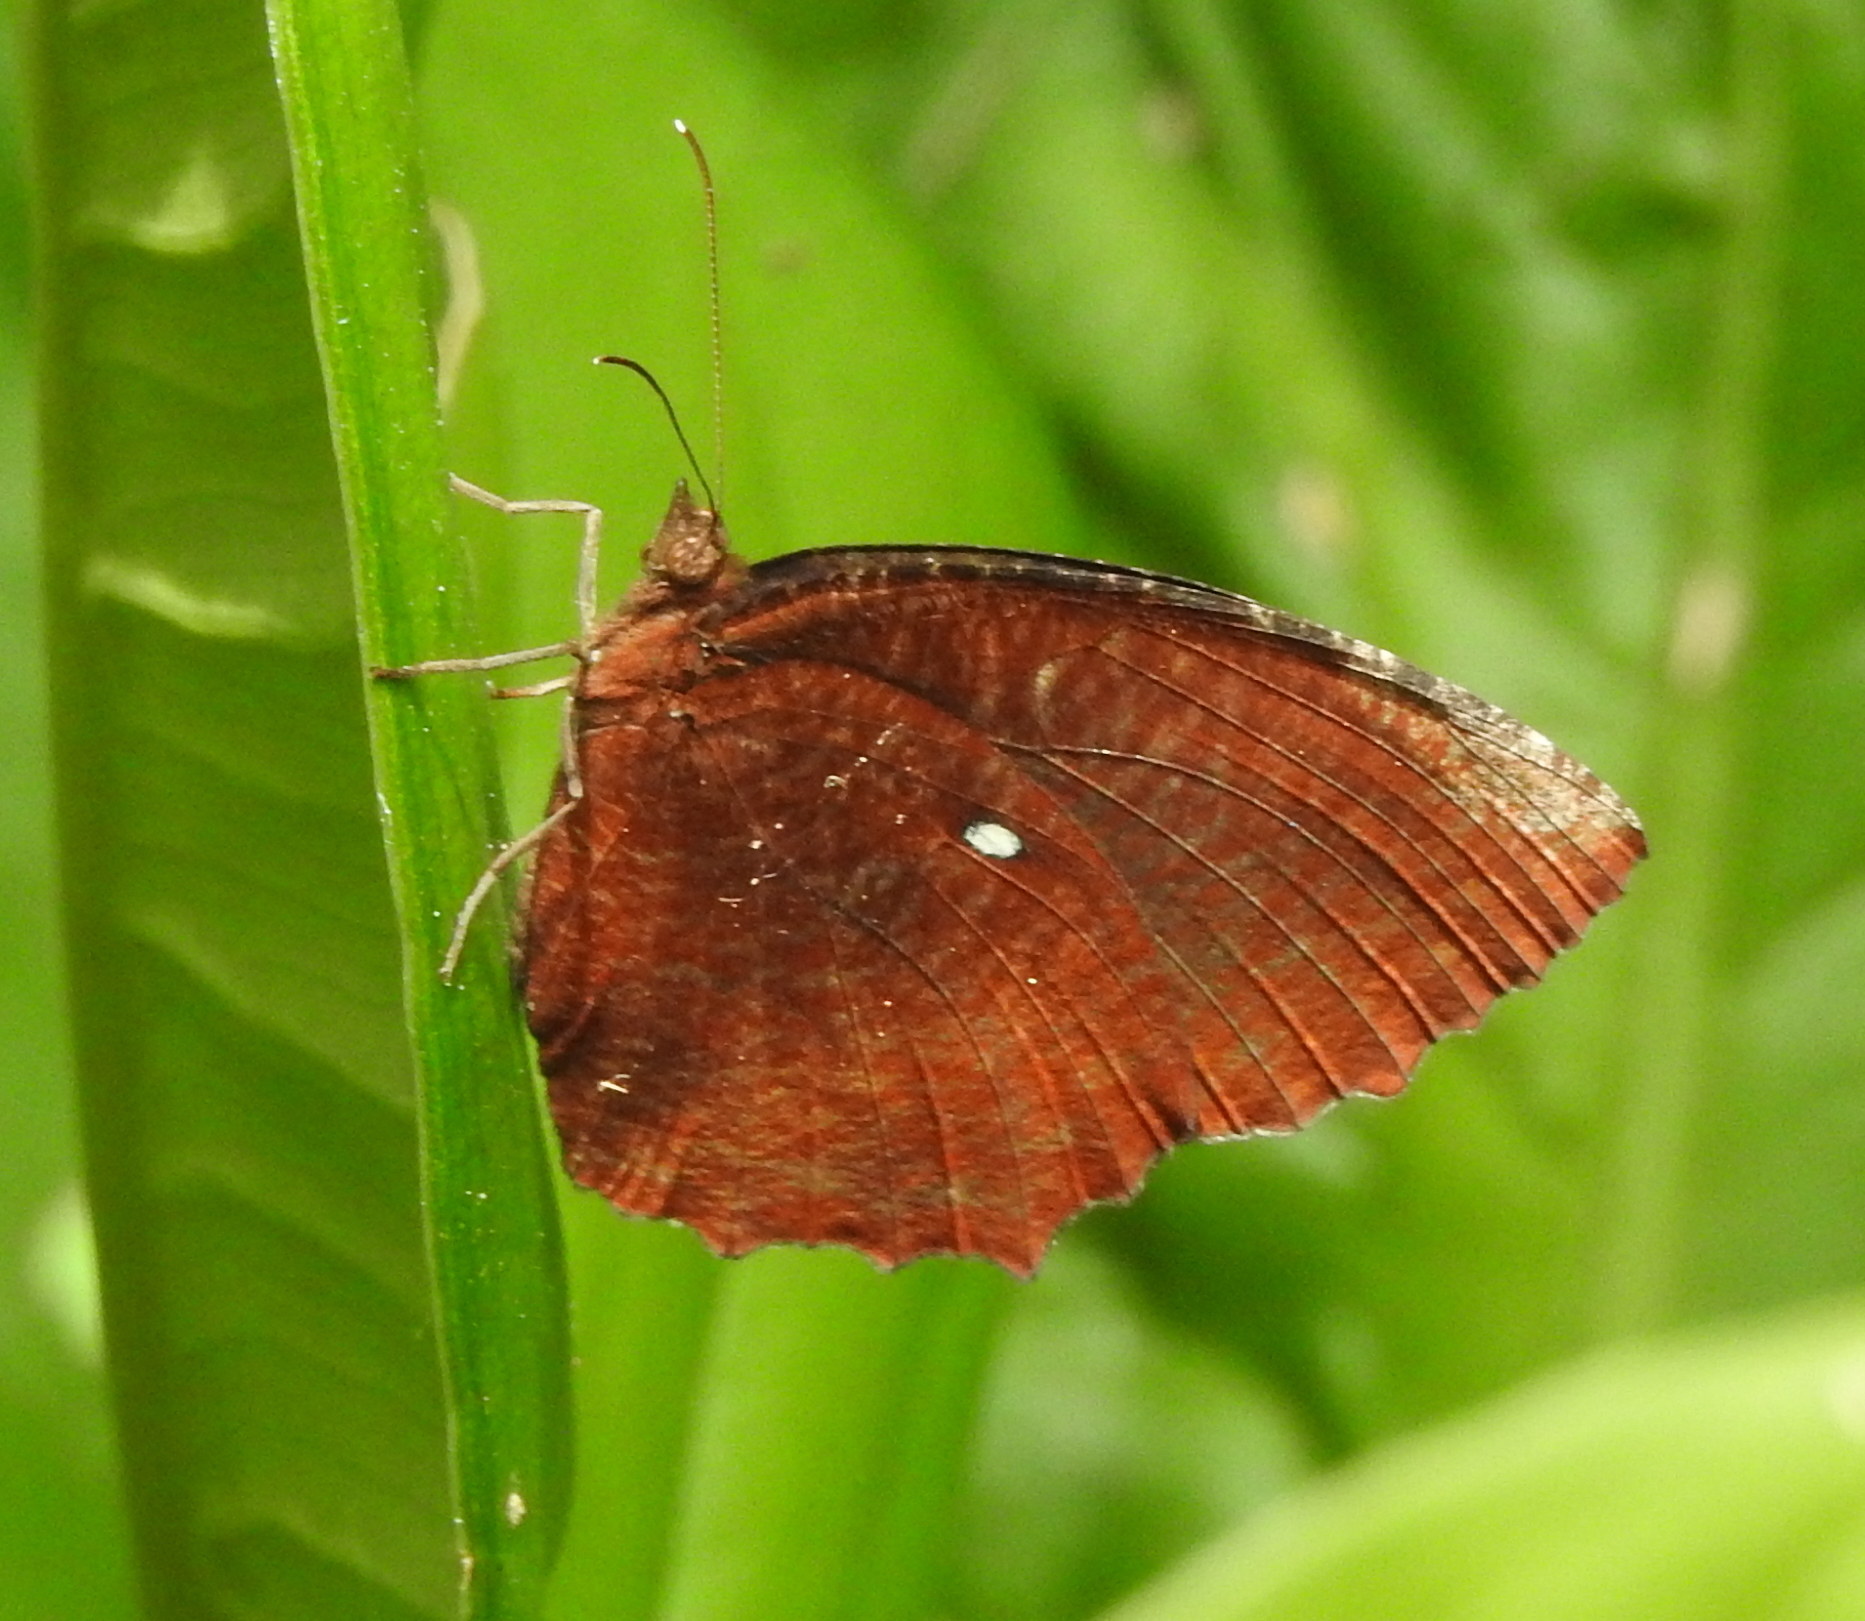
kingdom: Animalia
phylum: Arthropoda
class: Insecta
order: Lepidoptera
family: Nymphalidae
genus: Elymnias
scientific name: Elymnias hypermnestra
